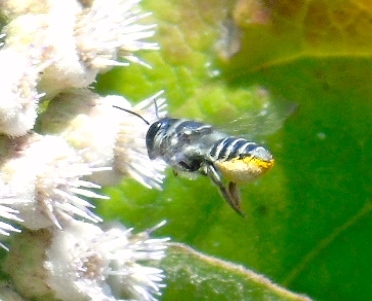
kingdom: Animalia
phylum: Arthropoda
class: Insecta
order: Hymenoptera
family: Megachilidae
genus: Megachile
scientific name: Megachile
